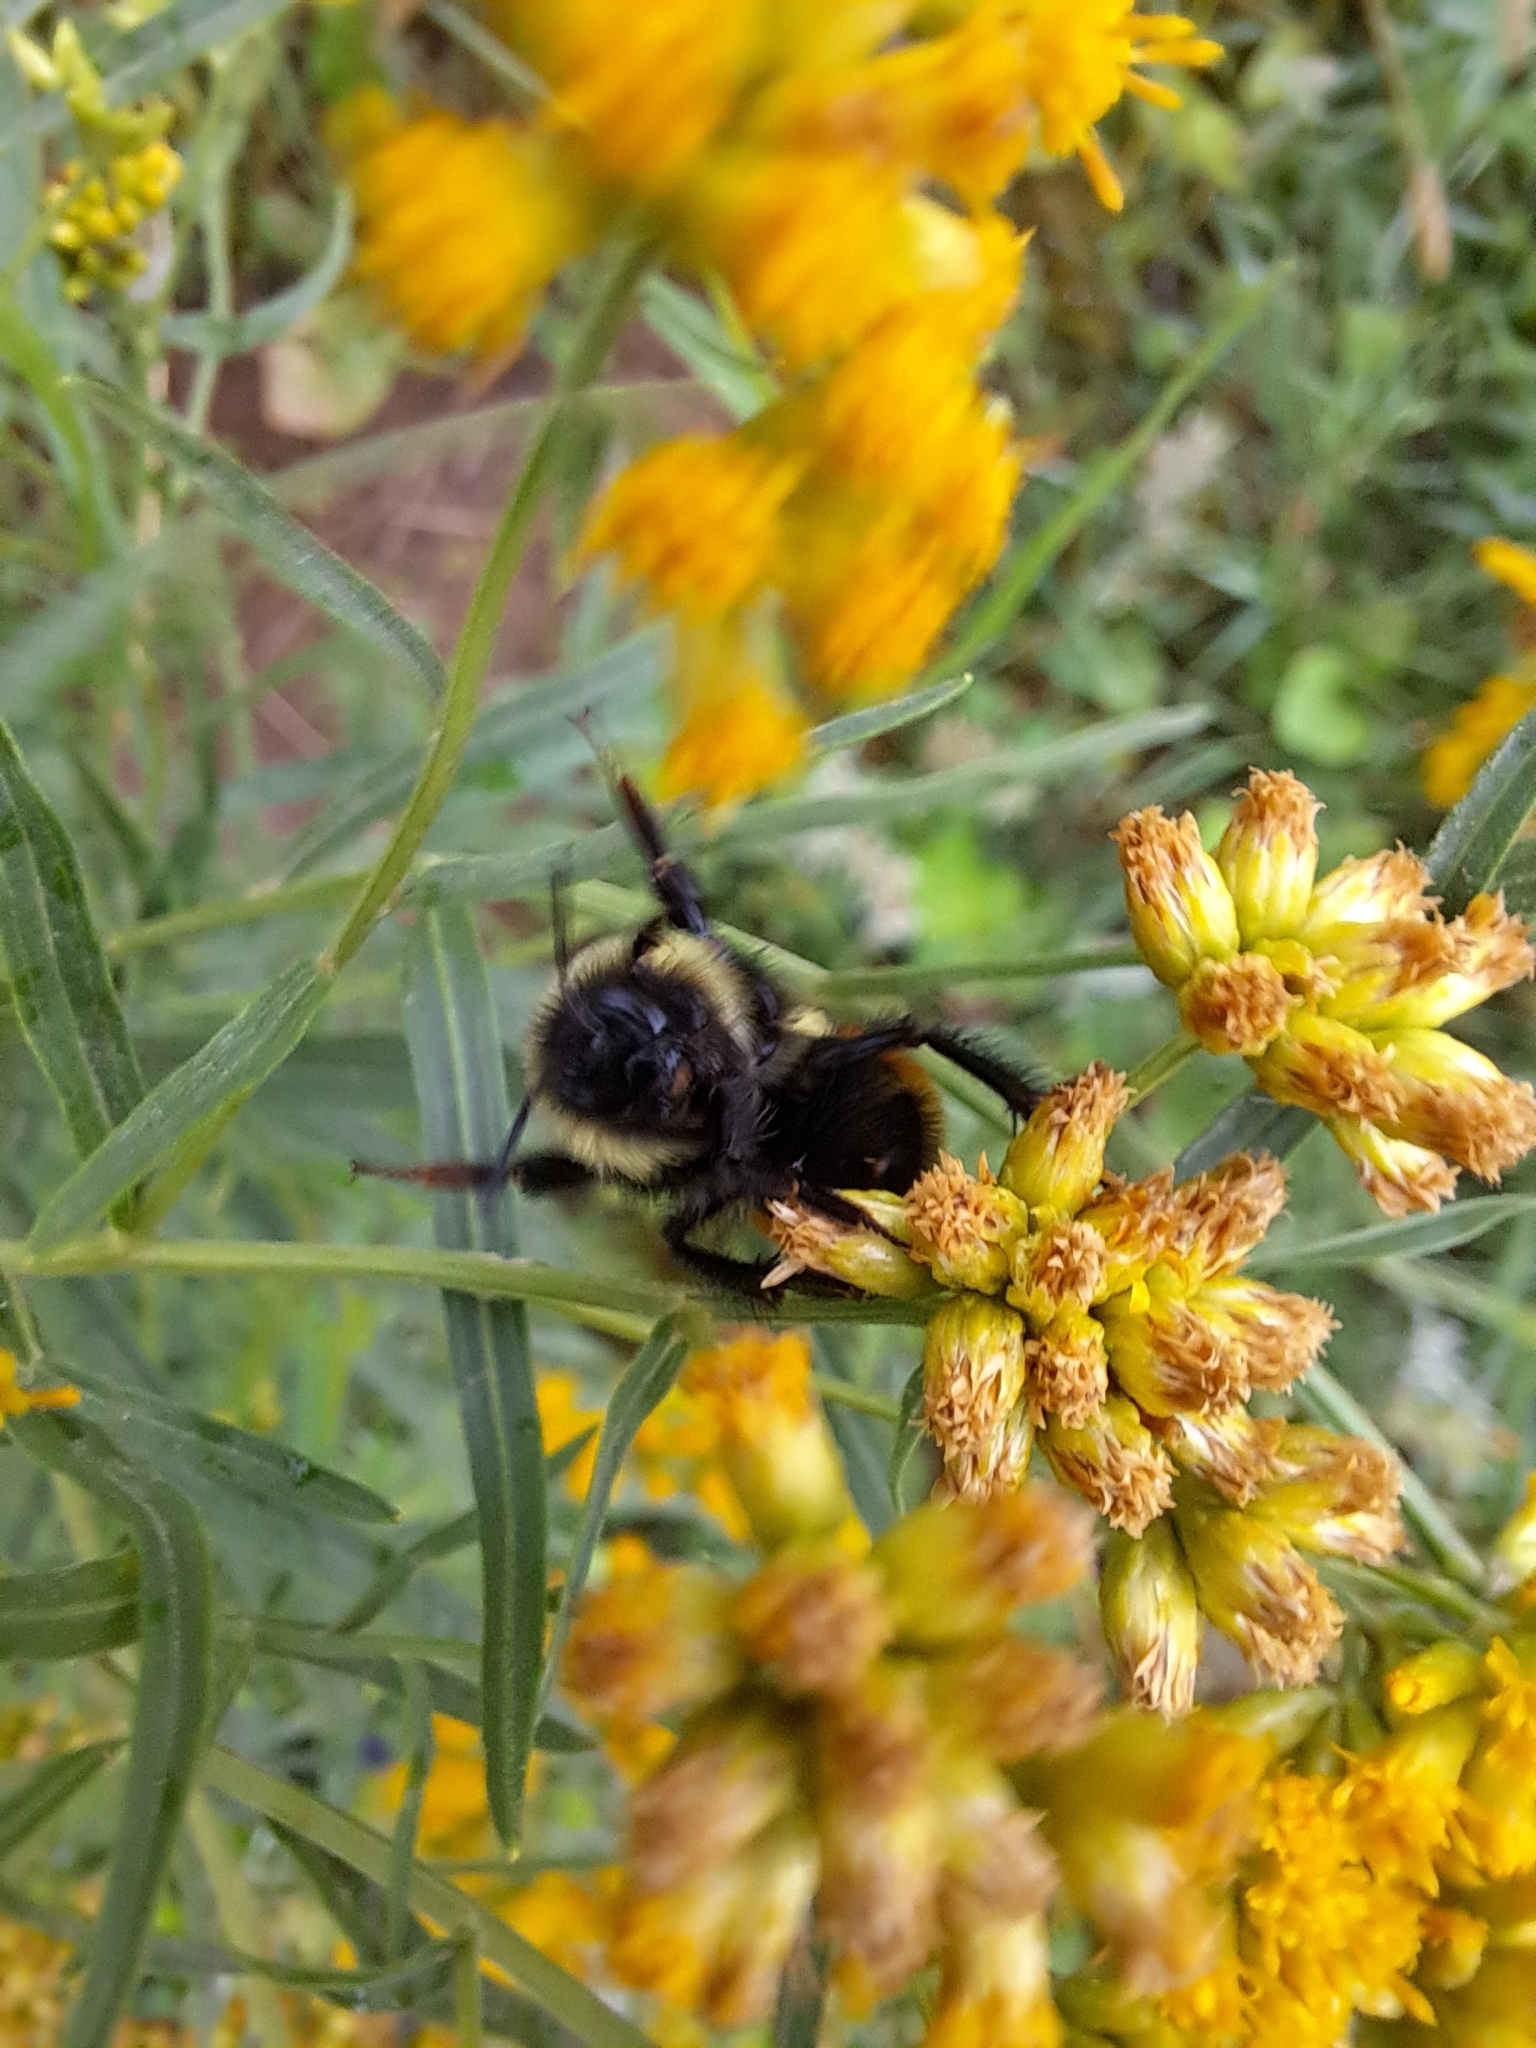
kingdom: Animalia
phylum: Arthropoda
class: Insecta
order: Hymenoptera
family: Apidae
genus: Bombus
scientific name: Bombus
